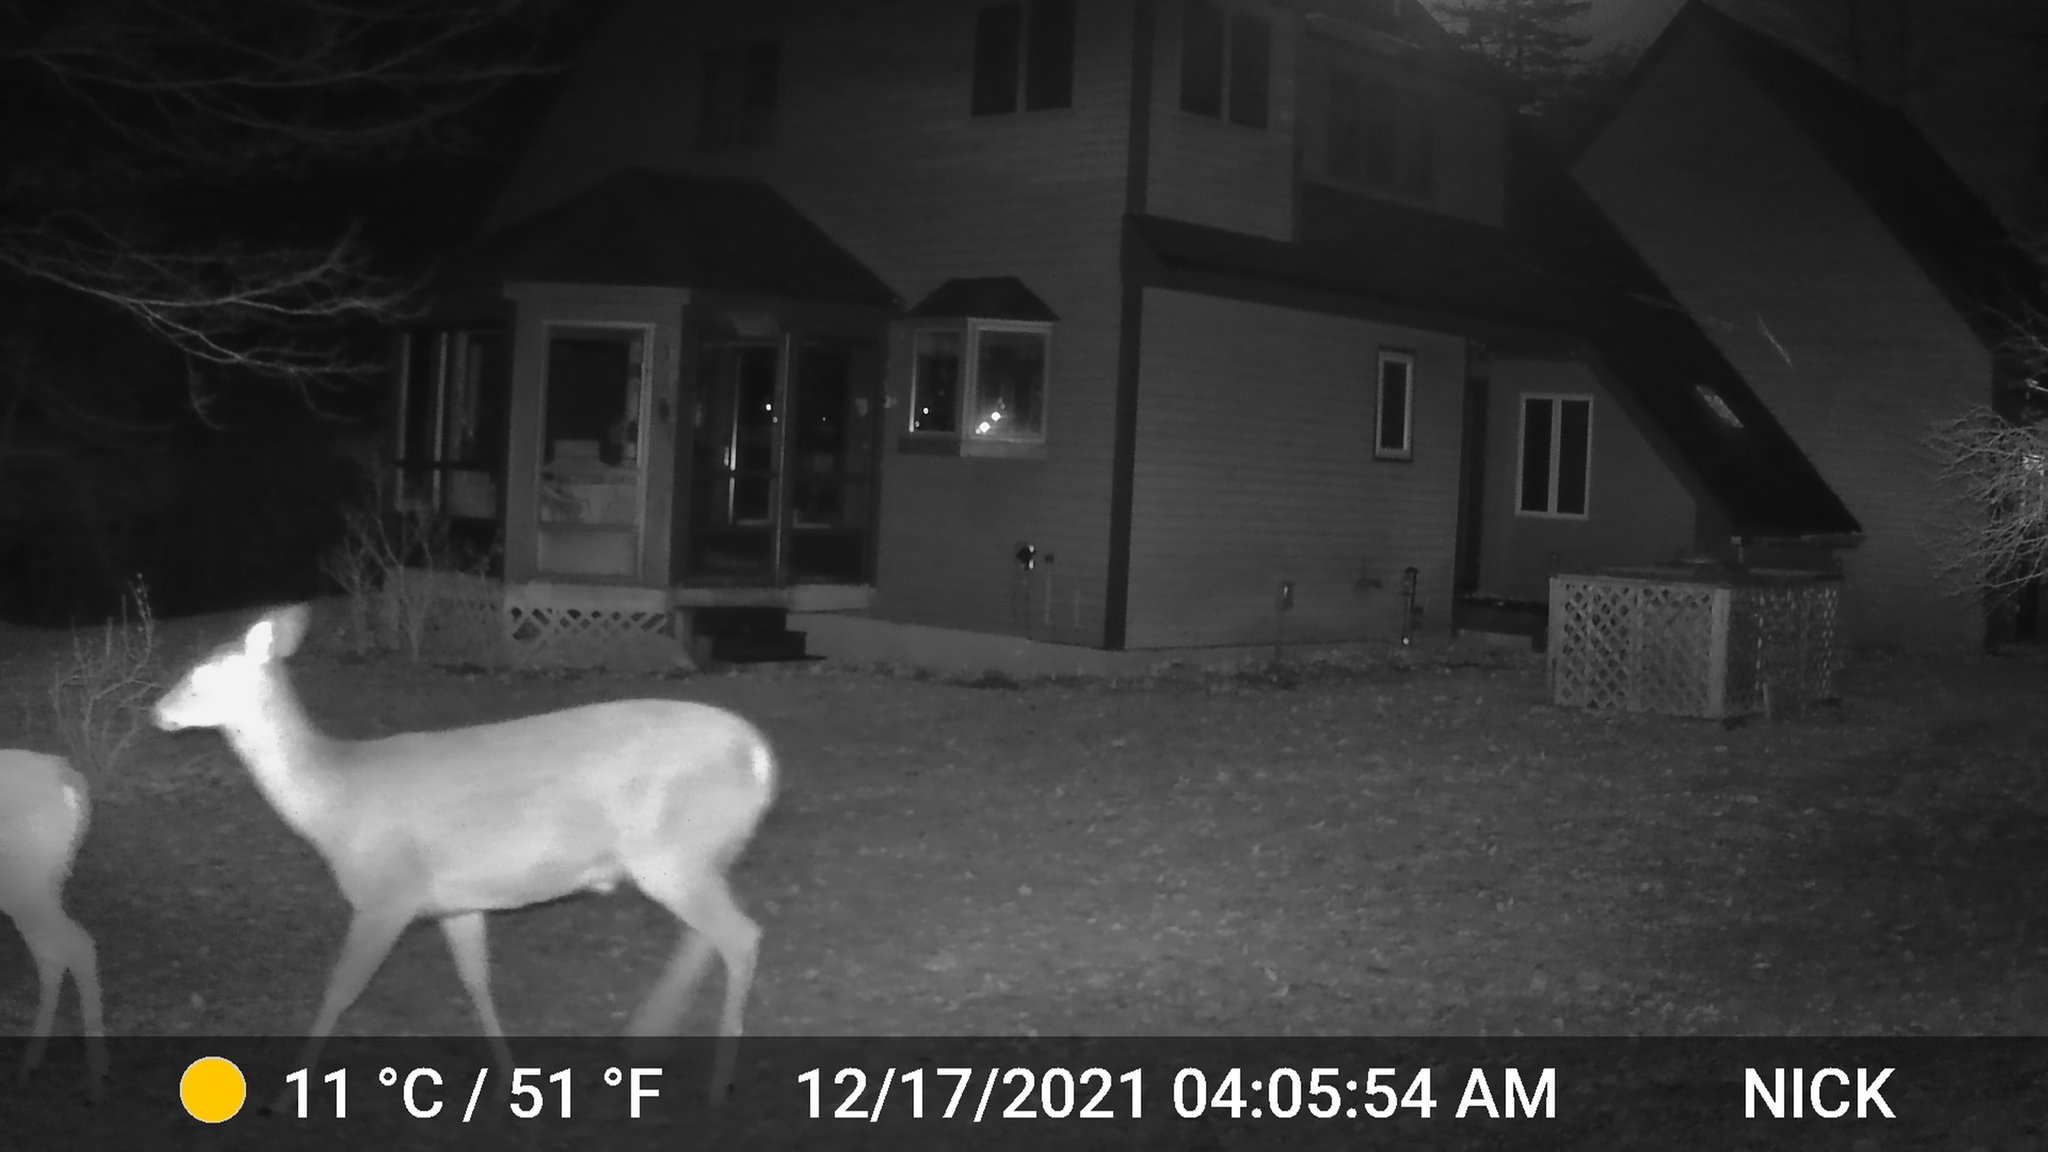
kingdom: Animalia
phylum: Chordata
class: Mammalia
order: Artiodactyla
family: Cervidae
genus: Odocoileus
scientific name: Odocoileus virginianus
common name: White-tailed deer
